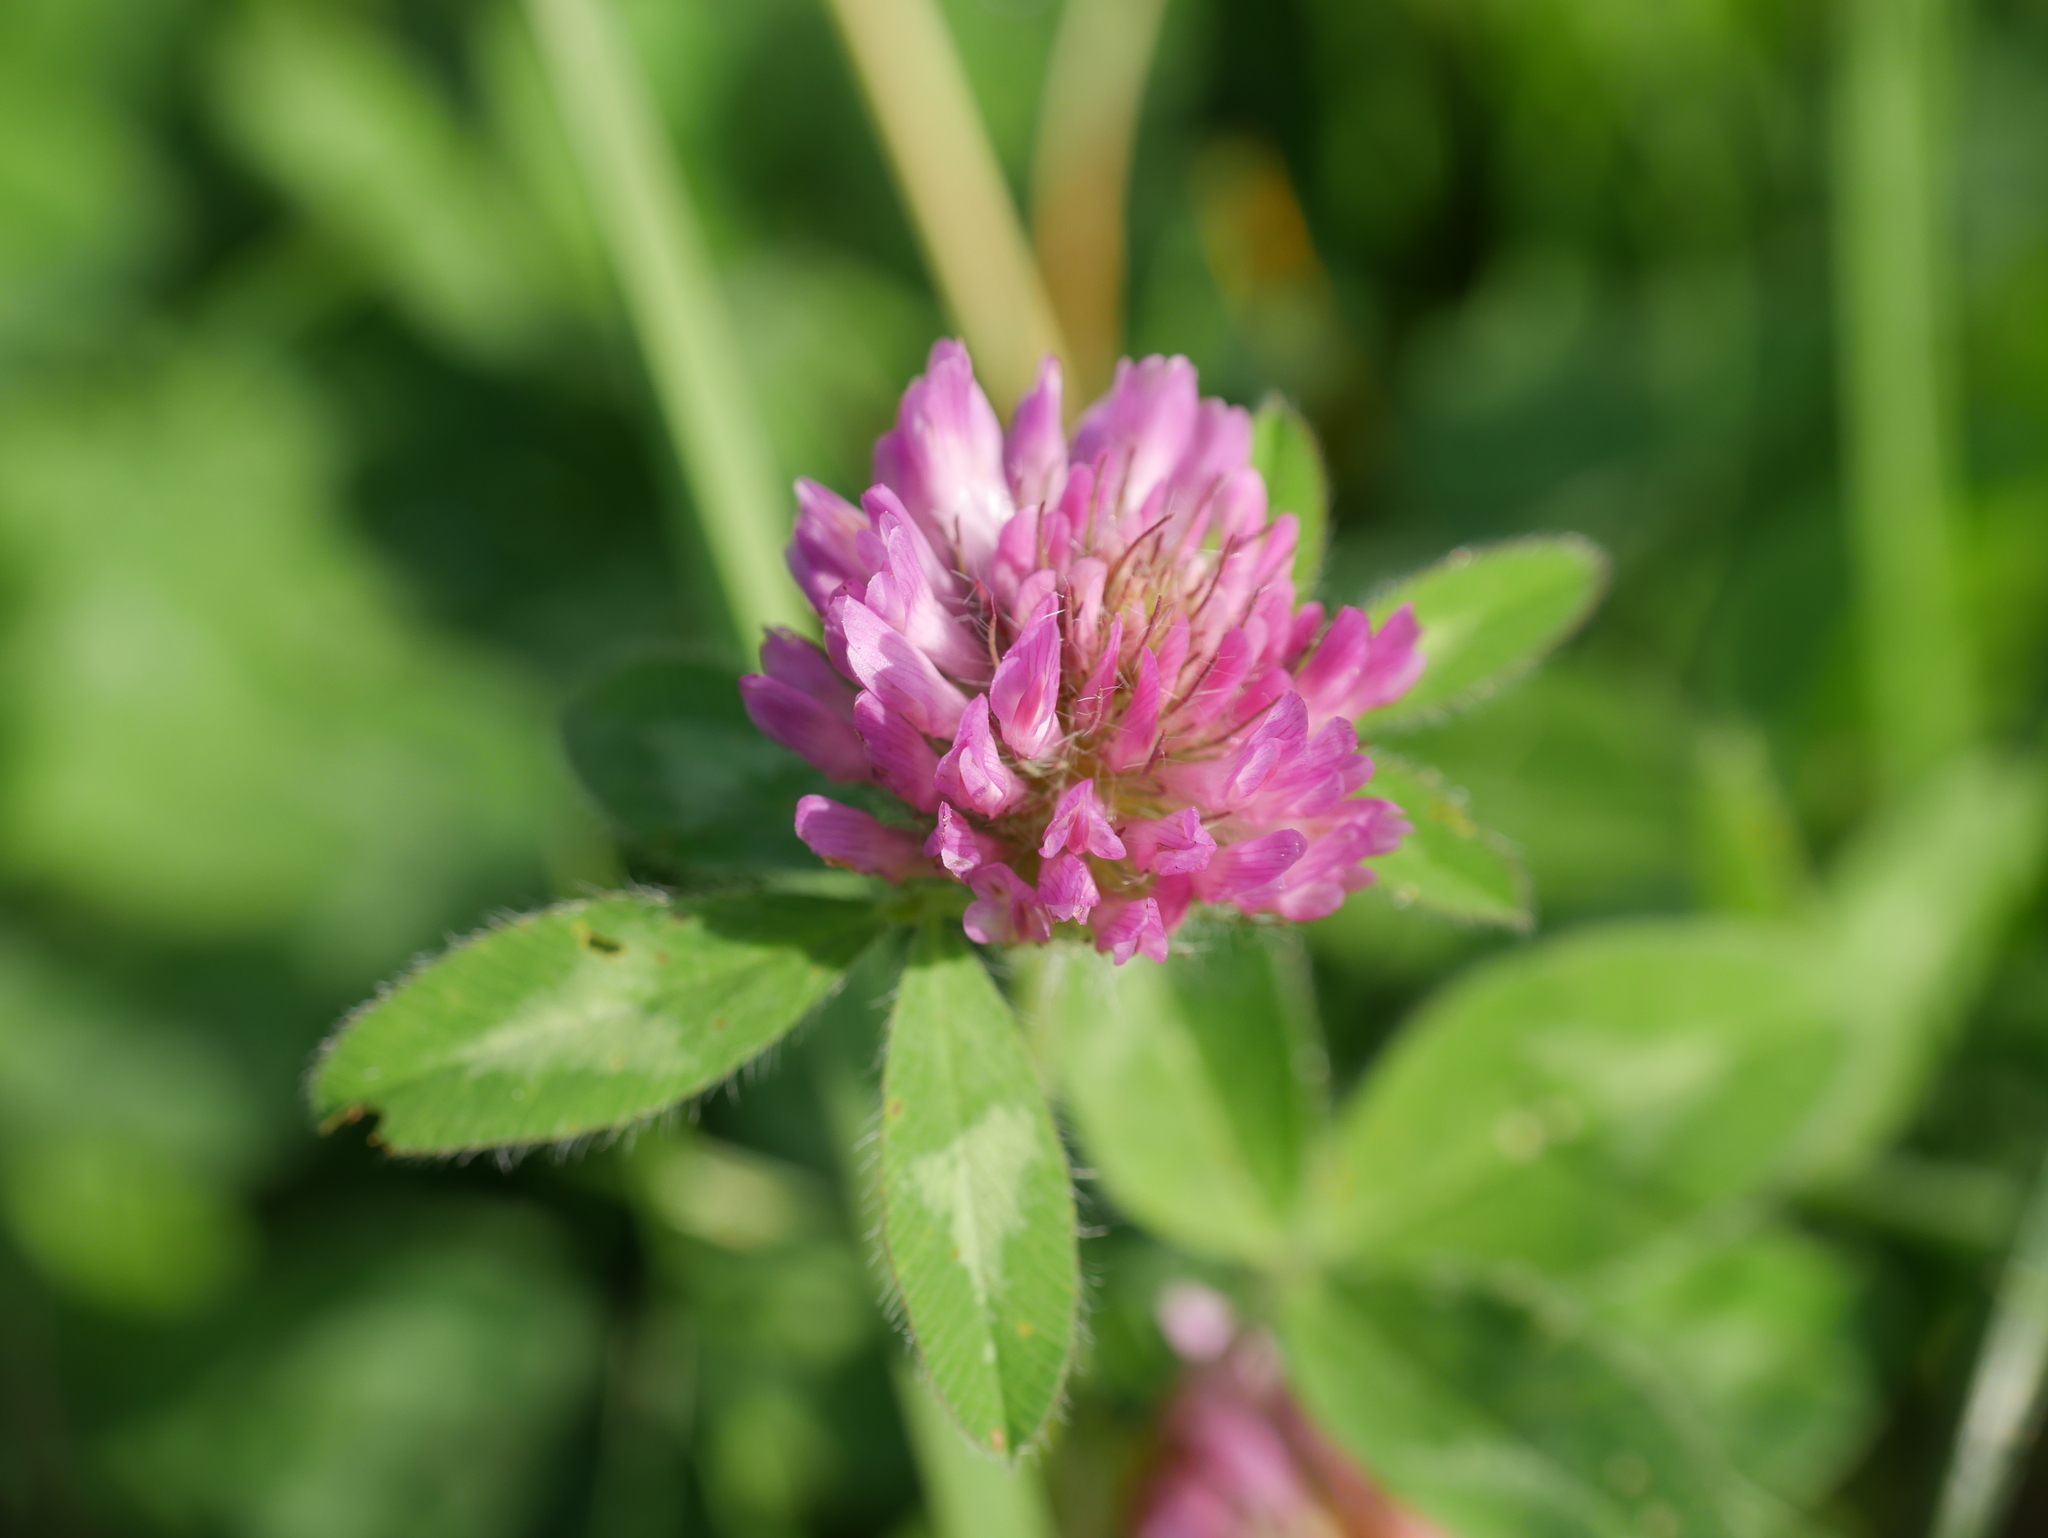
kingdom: Plantae
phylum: Tracheophyta
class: Magnoliopsida
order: Fabales
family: Fabaceae
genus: Trifolium
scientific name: Trifolium pratense
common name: Red clover
